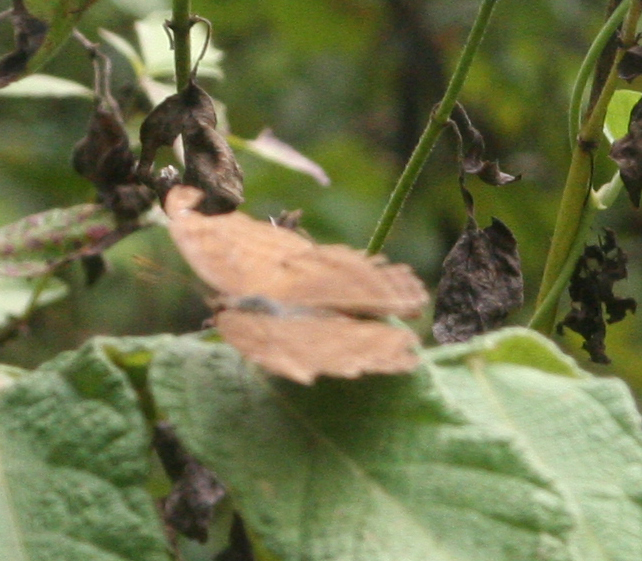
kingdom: Animalia
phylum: Arthropoda
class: Insecta
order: Lepidoptera
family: Nymphalidae
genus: Junonia
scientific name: Junonia iphita
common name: Chocolate pansy
